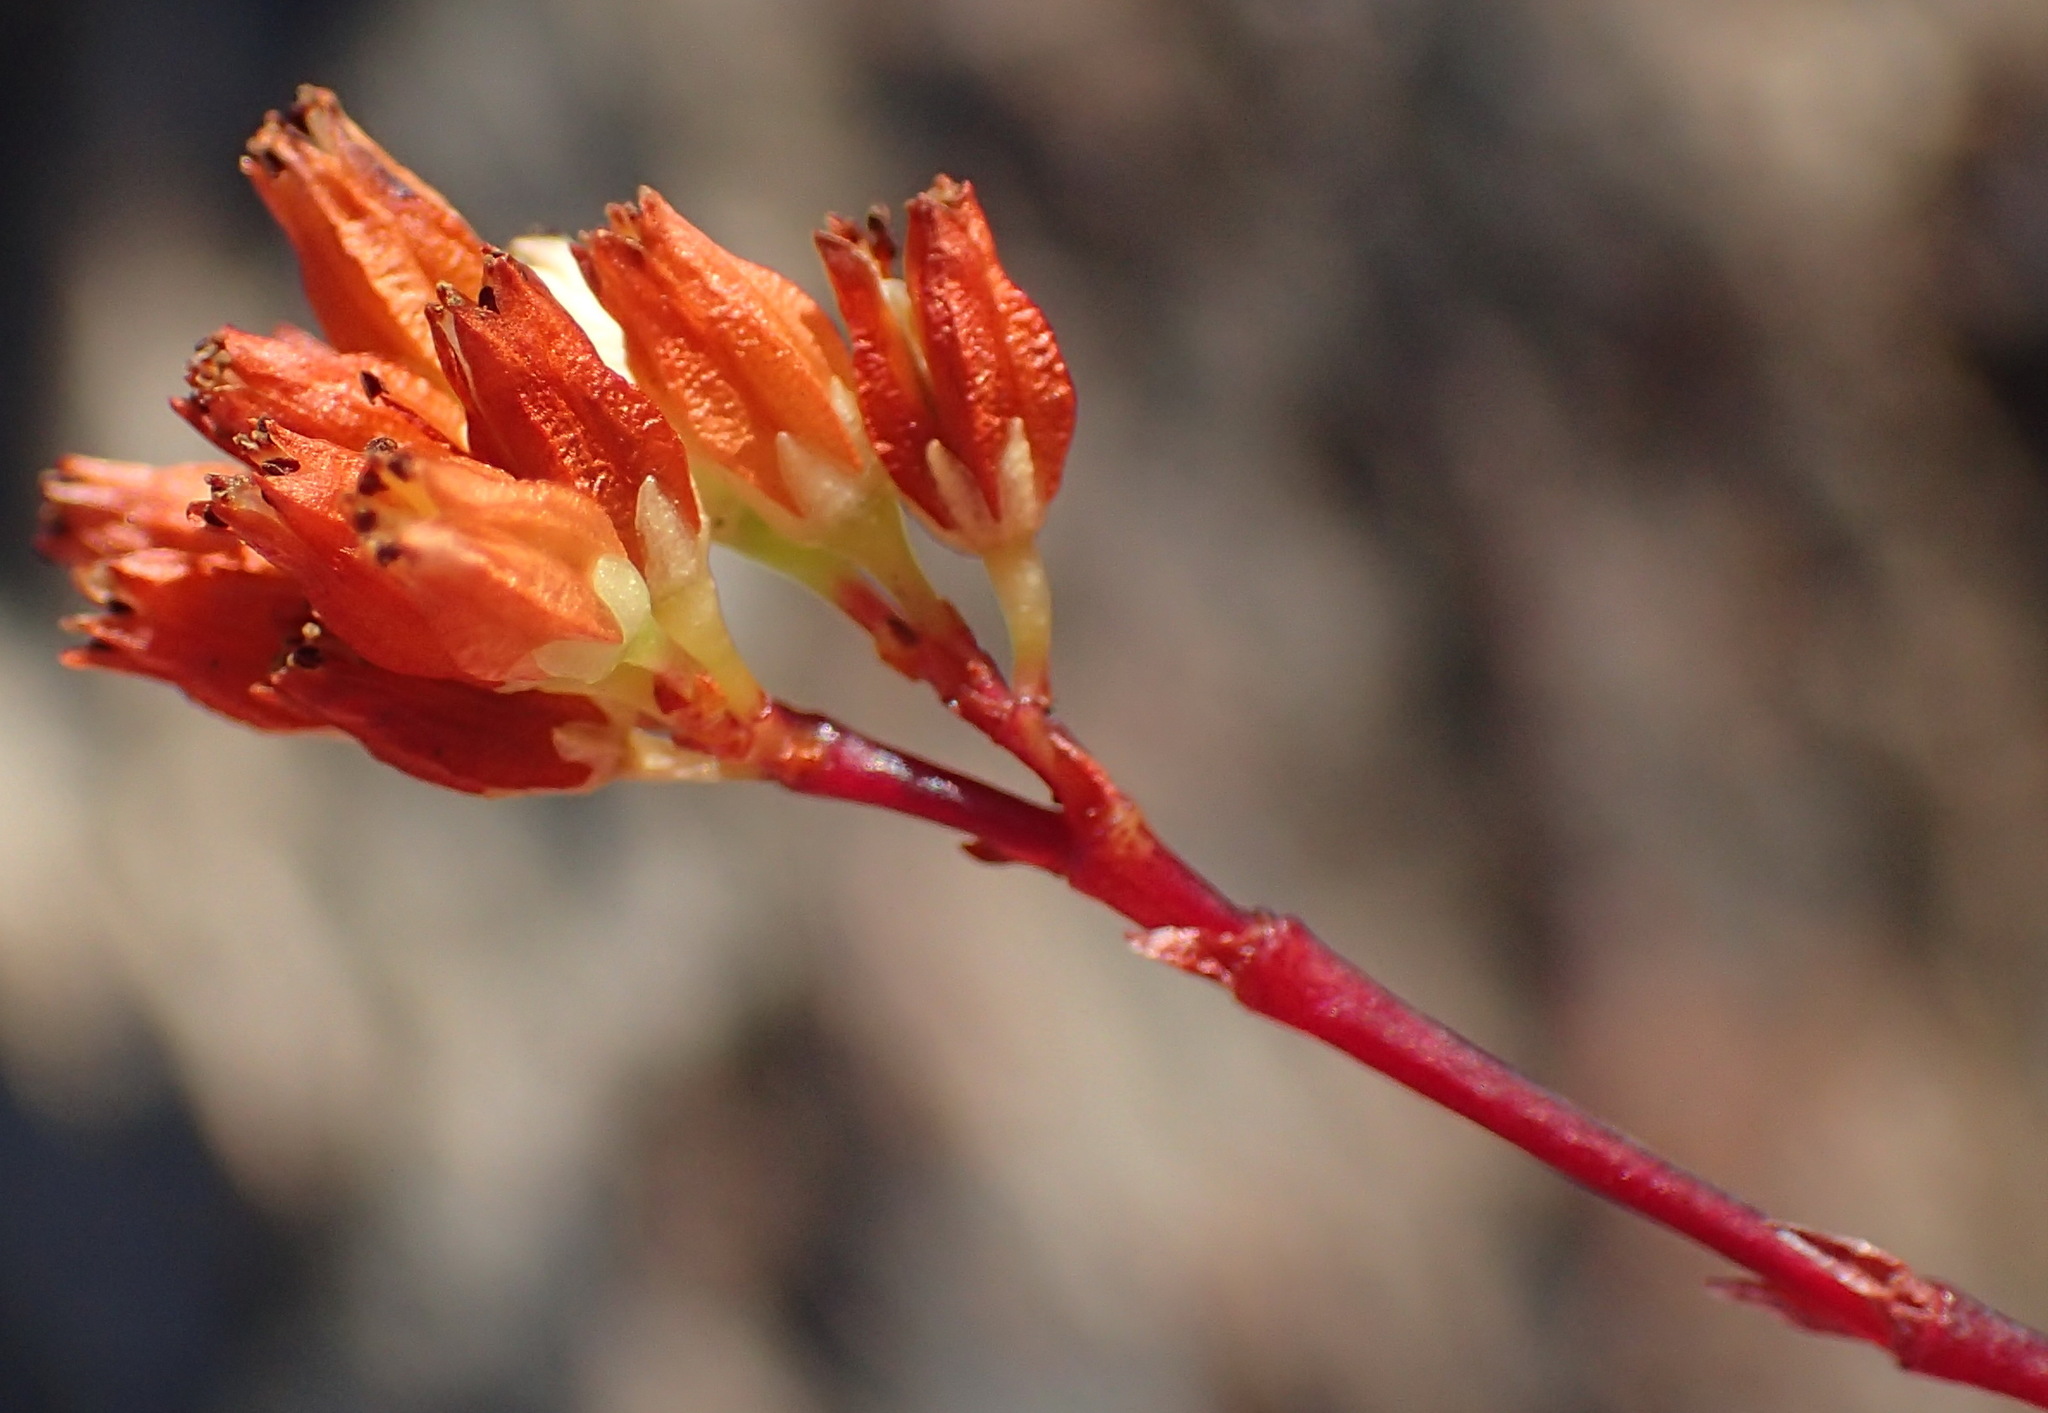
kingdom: Plantae
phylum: Tracheophyta
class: Magnoliopsida
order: Saxifragales
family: Crassulaceae
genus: Crassula
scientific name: Crassula biplanata
